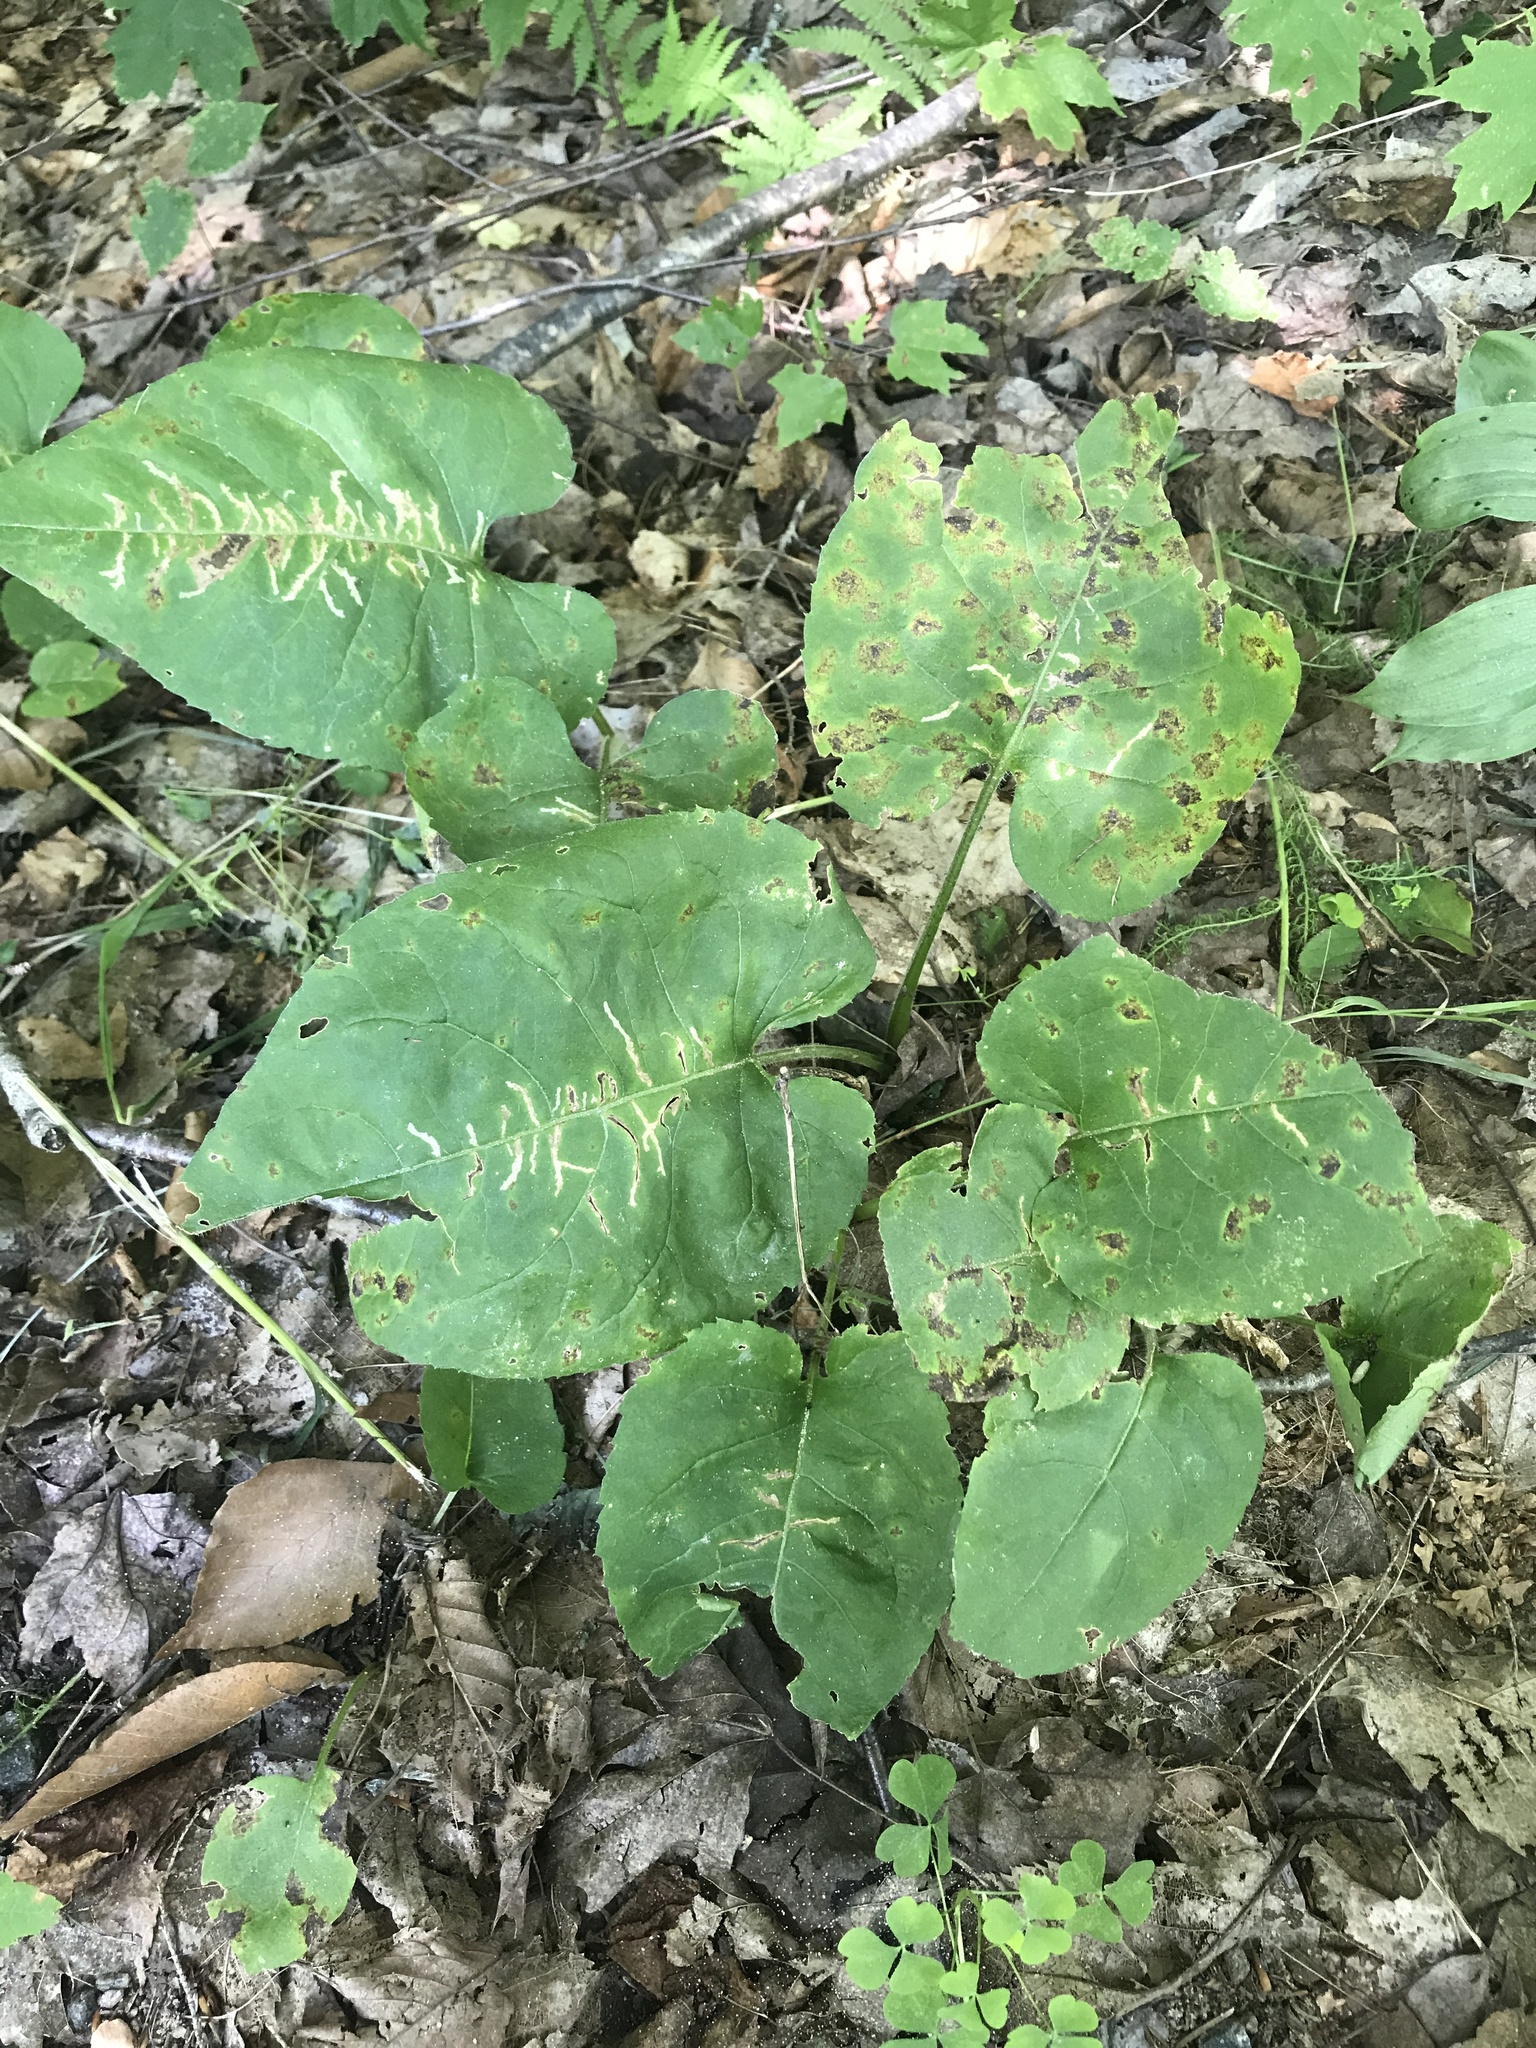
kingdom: Animalia
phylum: Arthropoda
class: Insecta
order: Lepidoptera
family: Gelechiidae
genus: Scrobipalpula
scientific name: Scrobipalpula manierreorum
